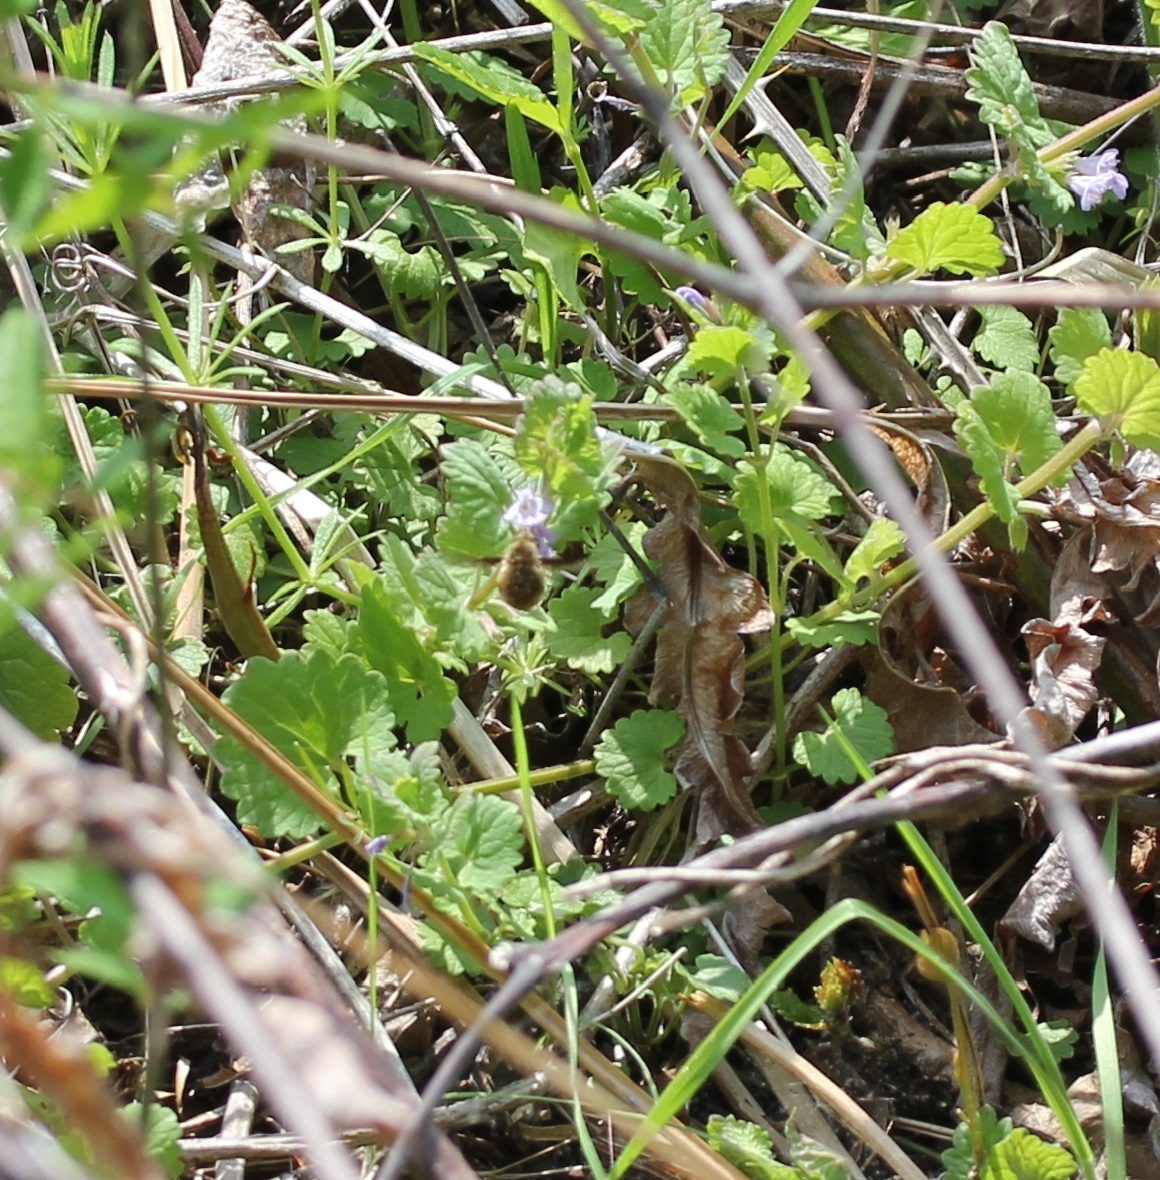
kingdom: Animalia
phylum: Arthropoda
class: Insecta
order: Diptera
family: Bombyliidae
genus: Bombylius
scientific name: Bombylius major
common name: Bee fly
